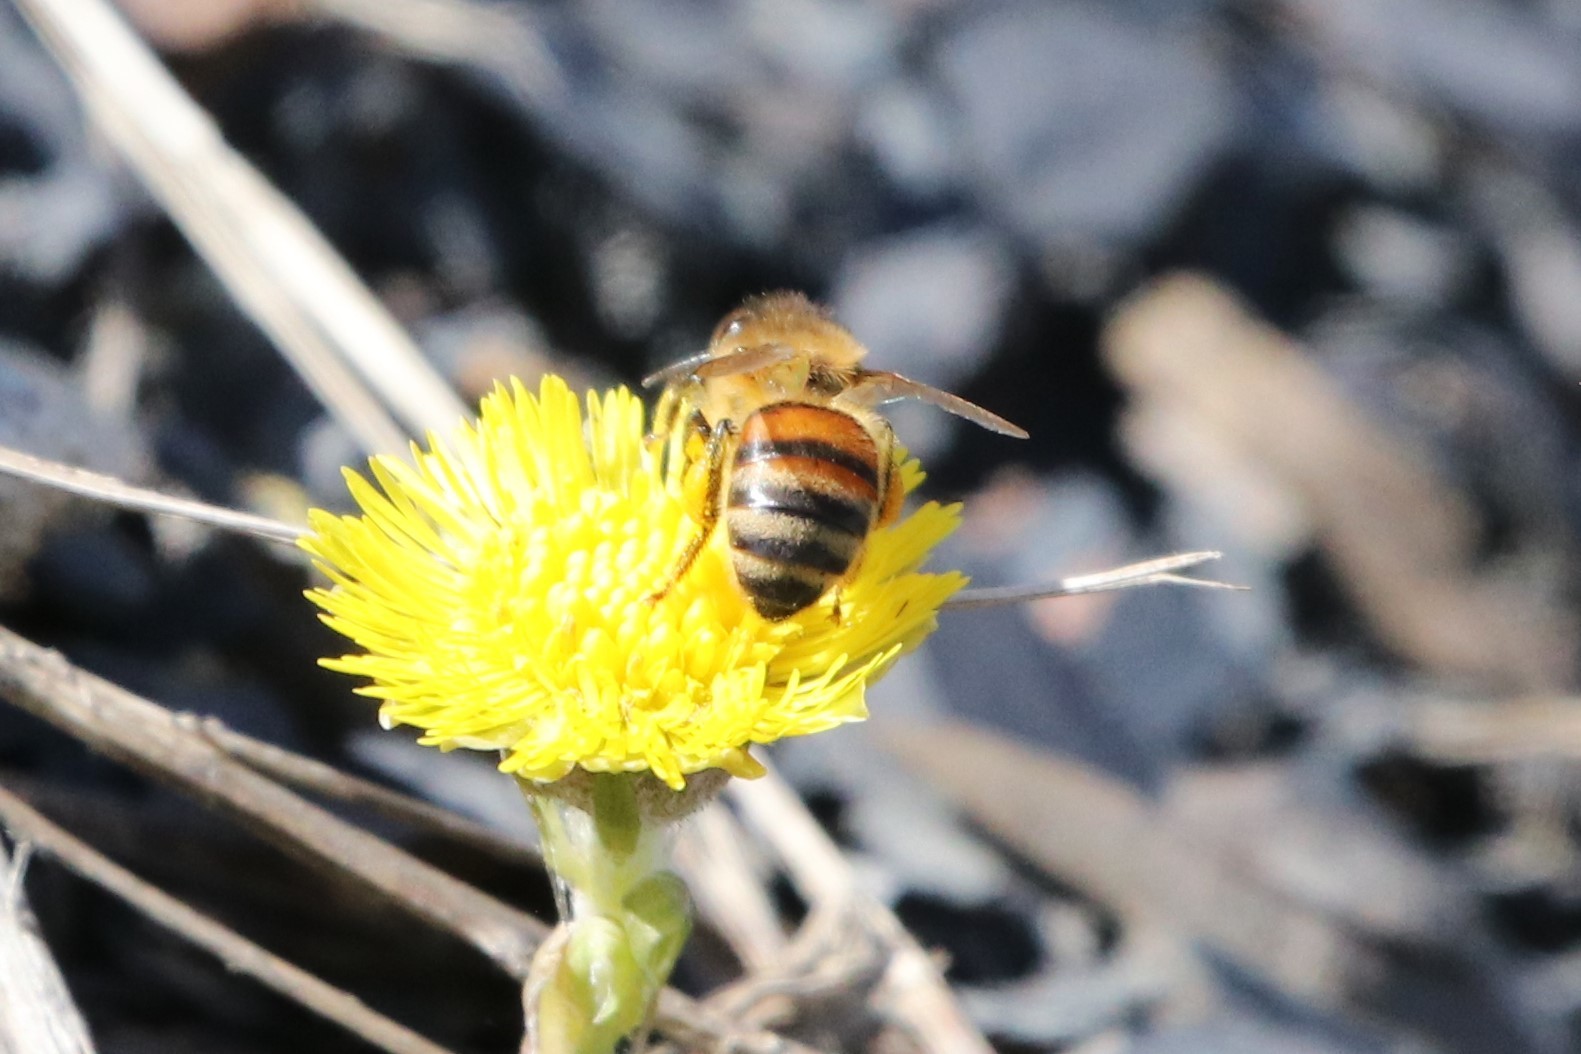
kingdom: Animalia
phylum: Arthropoda
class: Insecta
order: Hymenoptera
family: Apidae
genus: Apis
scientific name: Apis mellifera
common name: Honey bee
